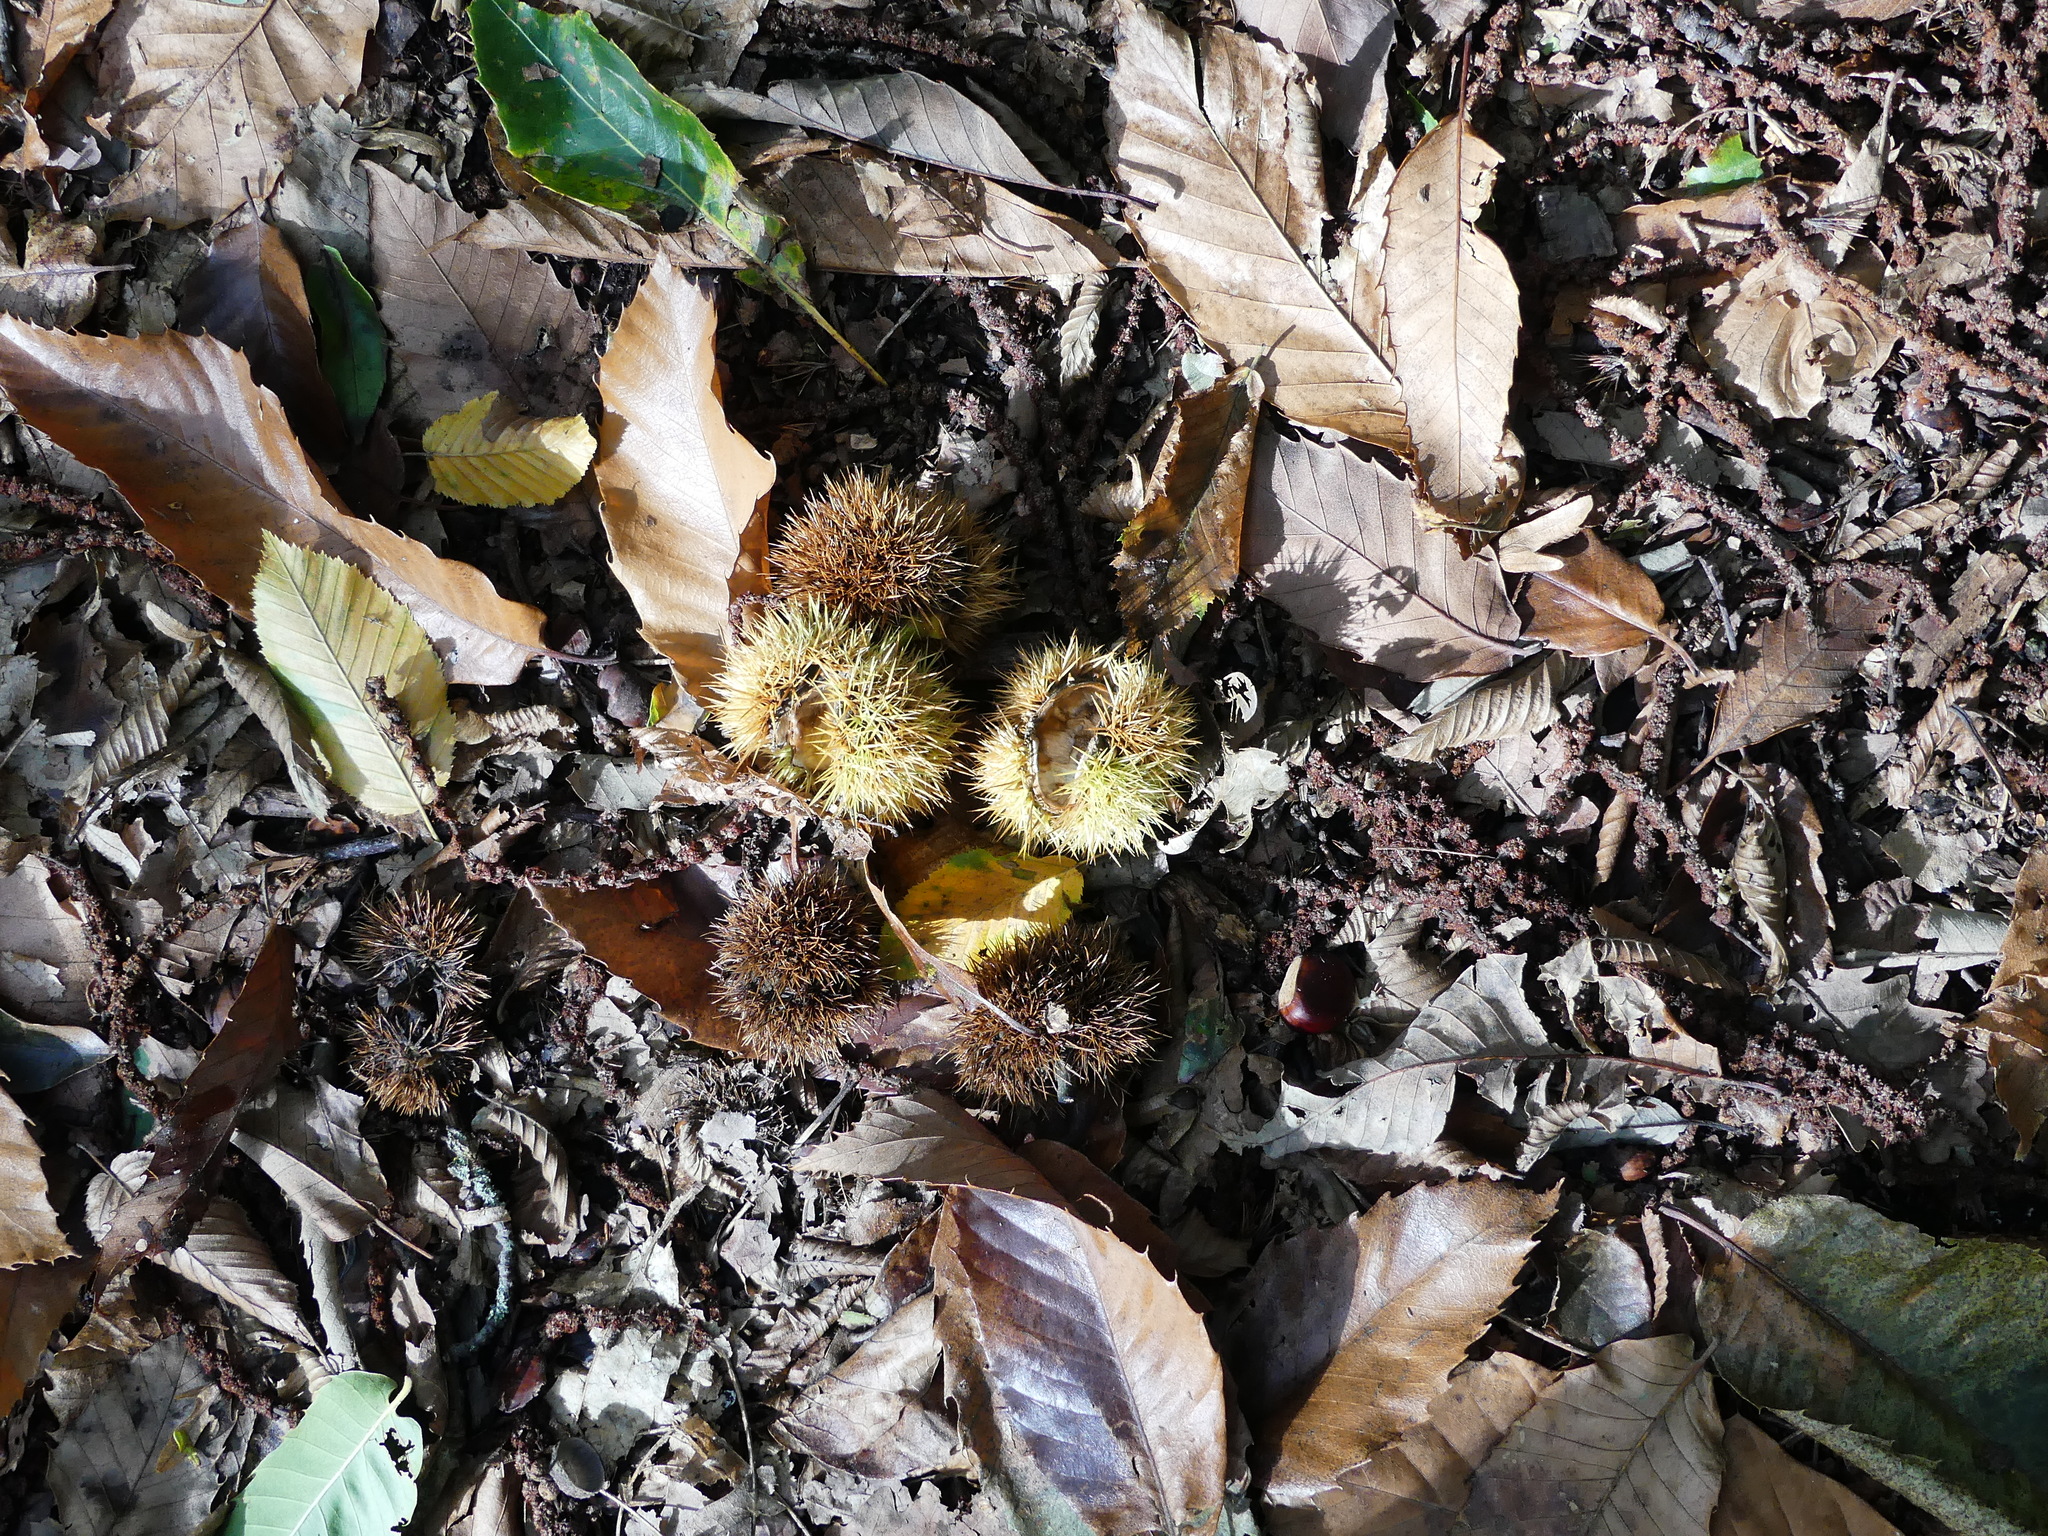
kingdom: Plantae
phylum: Tracheophyta
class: Magnoliopsida
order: Fagales
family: Fagaceae
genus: Castanea
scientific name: Castanea sativa
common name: Sweet chestnut
